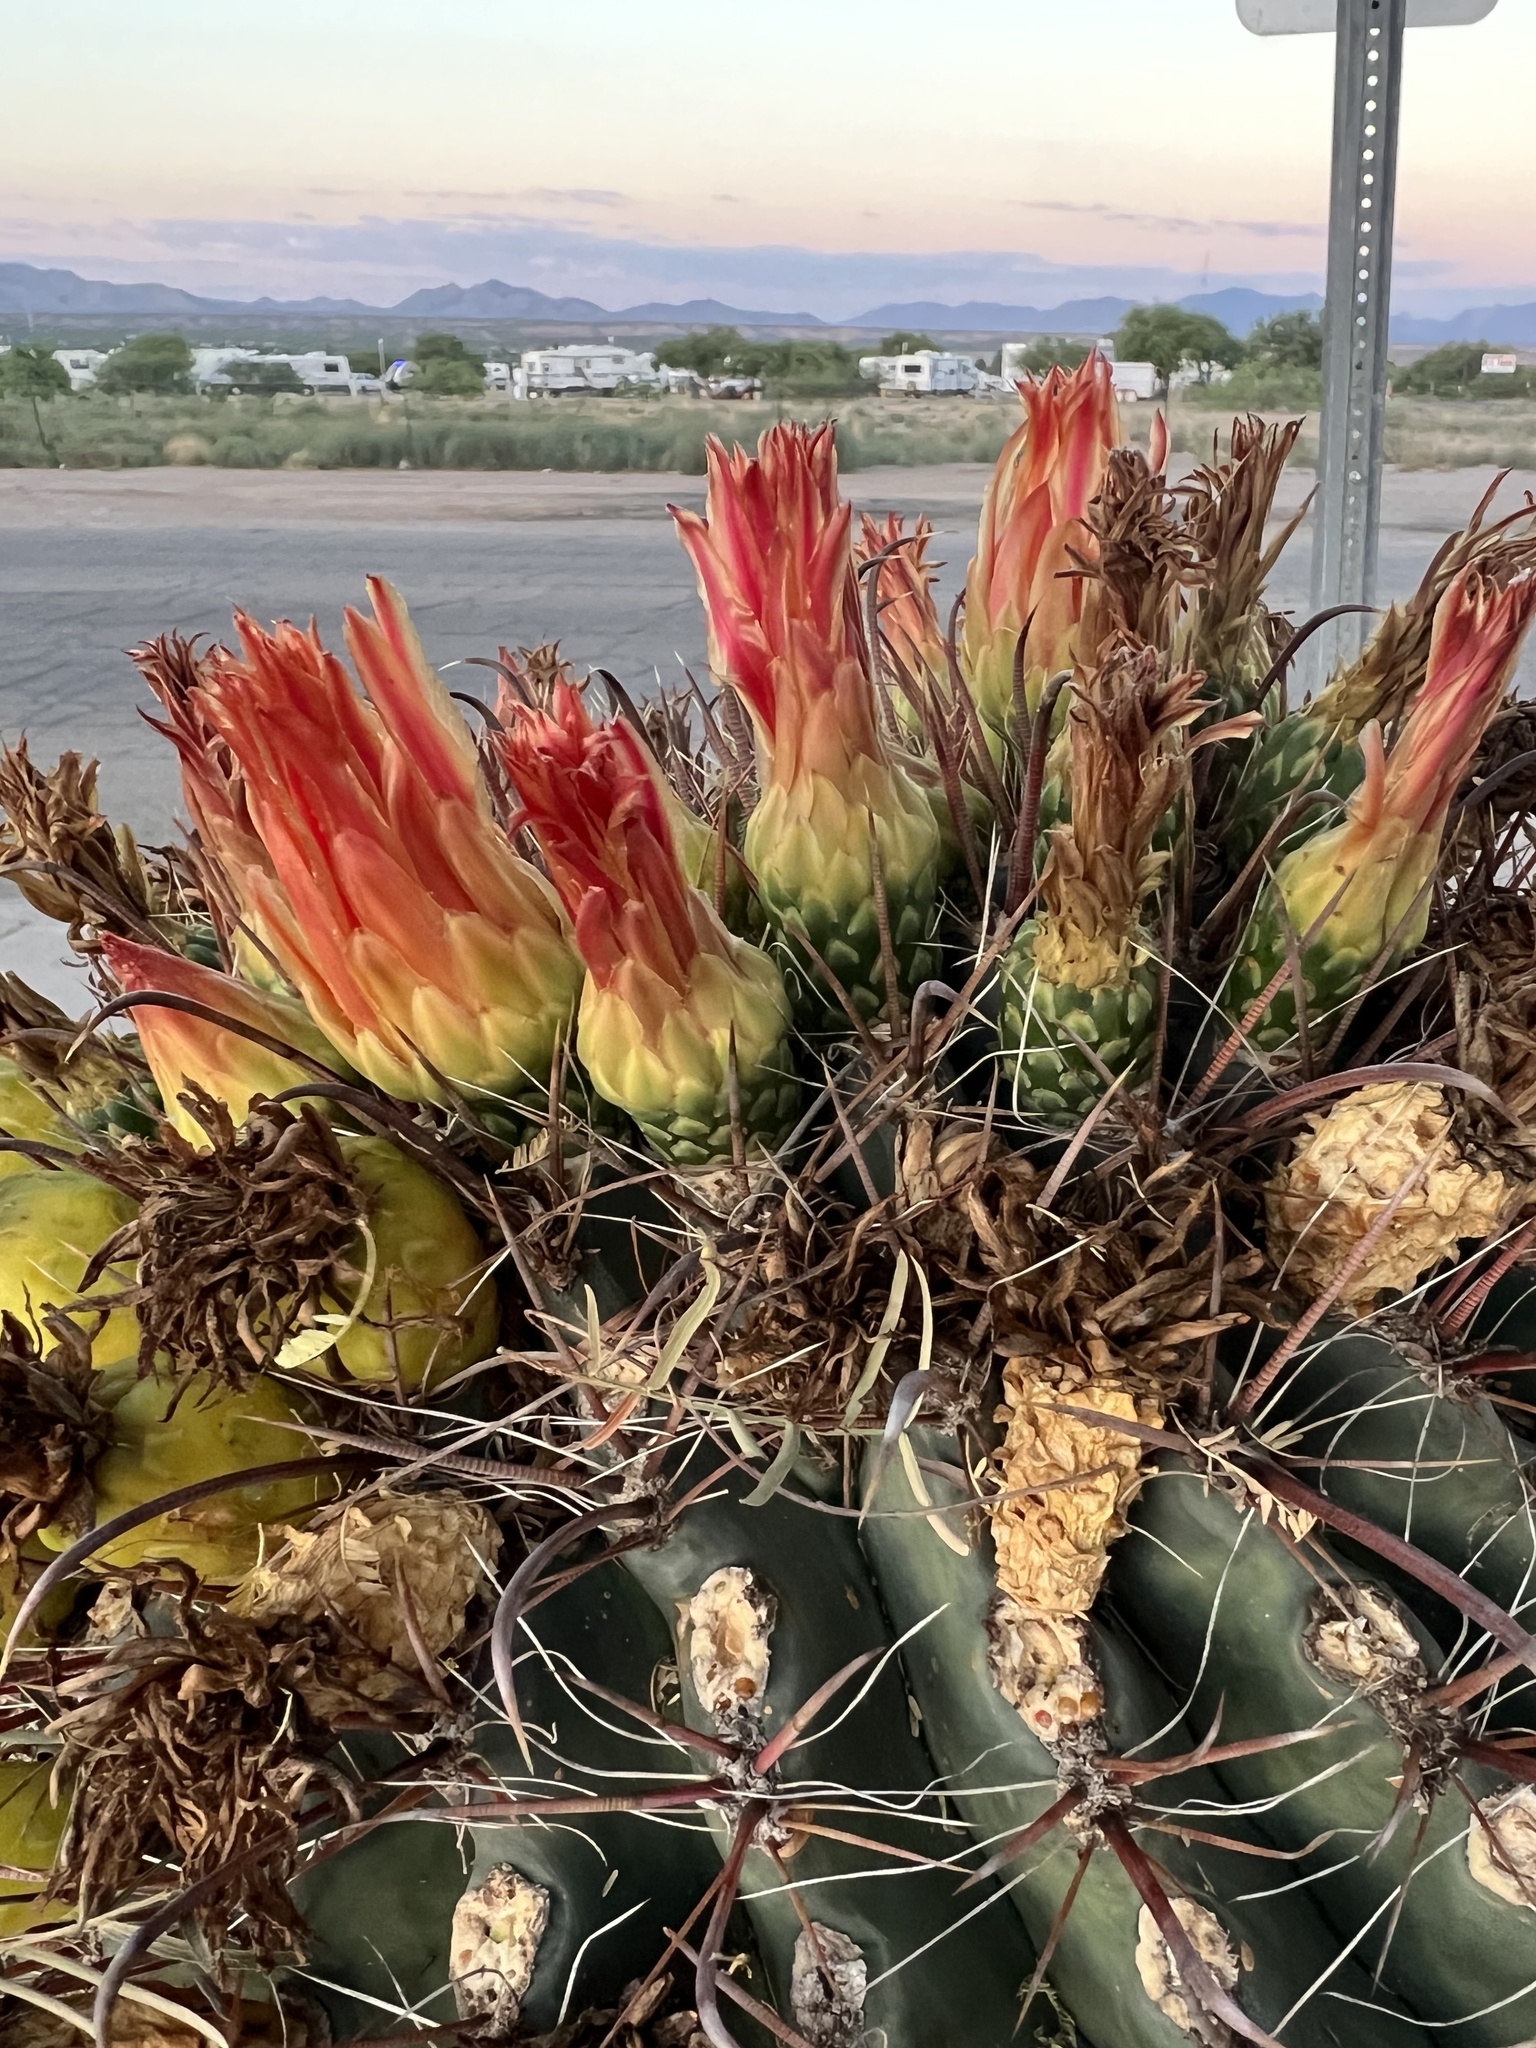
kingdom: Plantae
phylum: Tracheophyta
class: Magnoliopsida
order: Caryophyllales
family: Cactaceae
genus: Ferocactus
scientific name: Ferocactus wislizeni
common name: Candy barrel cactus
